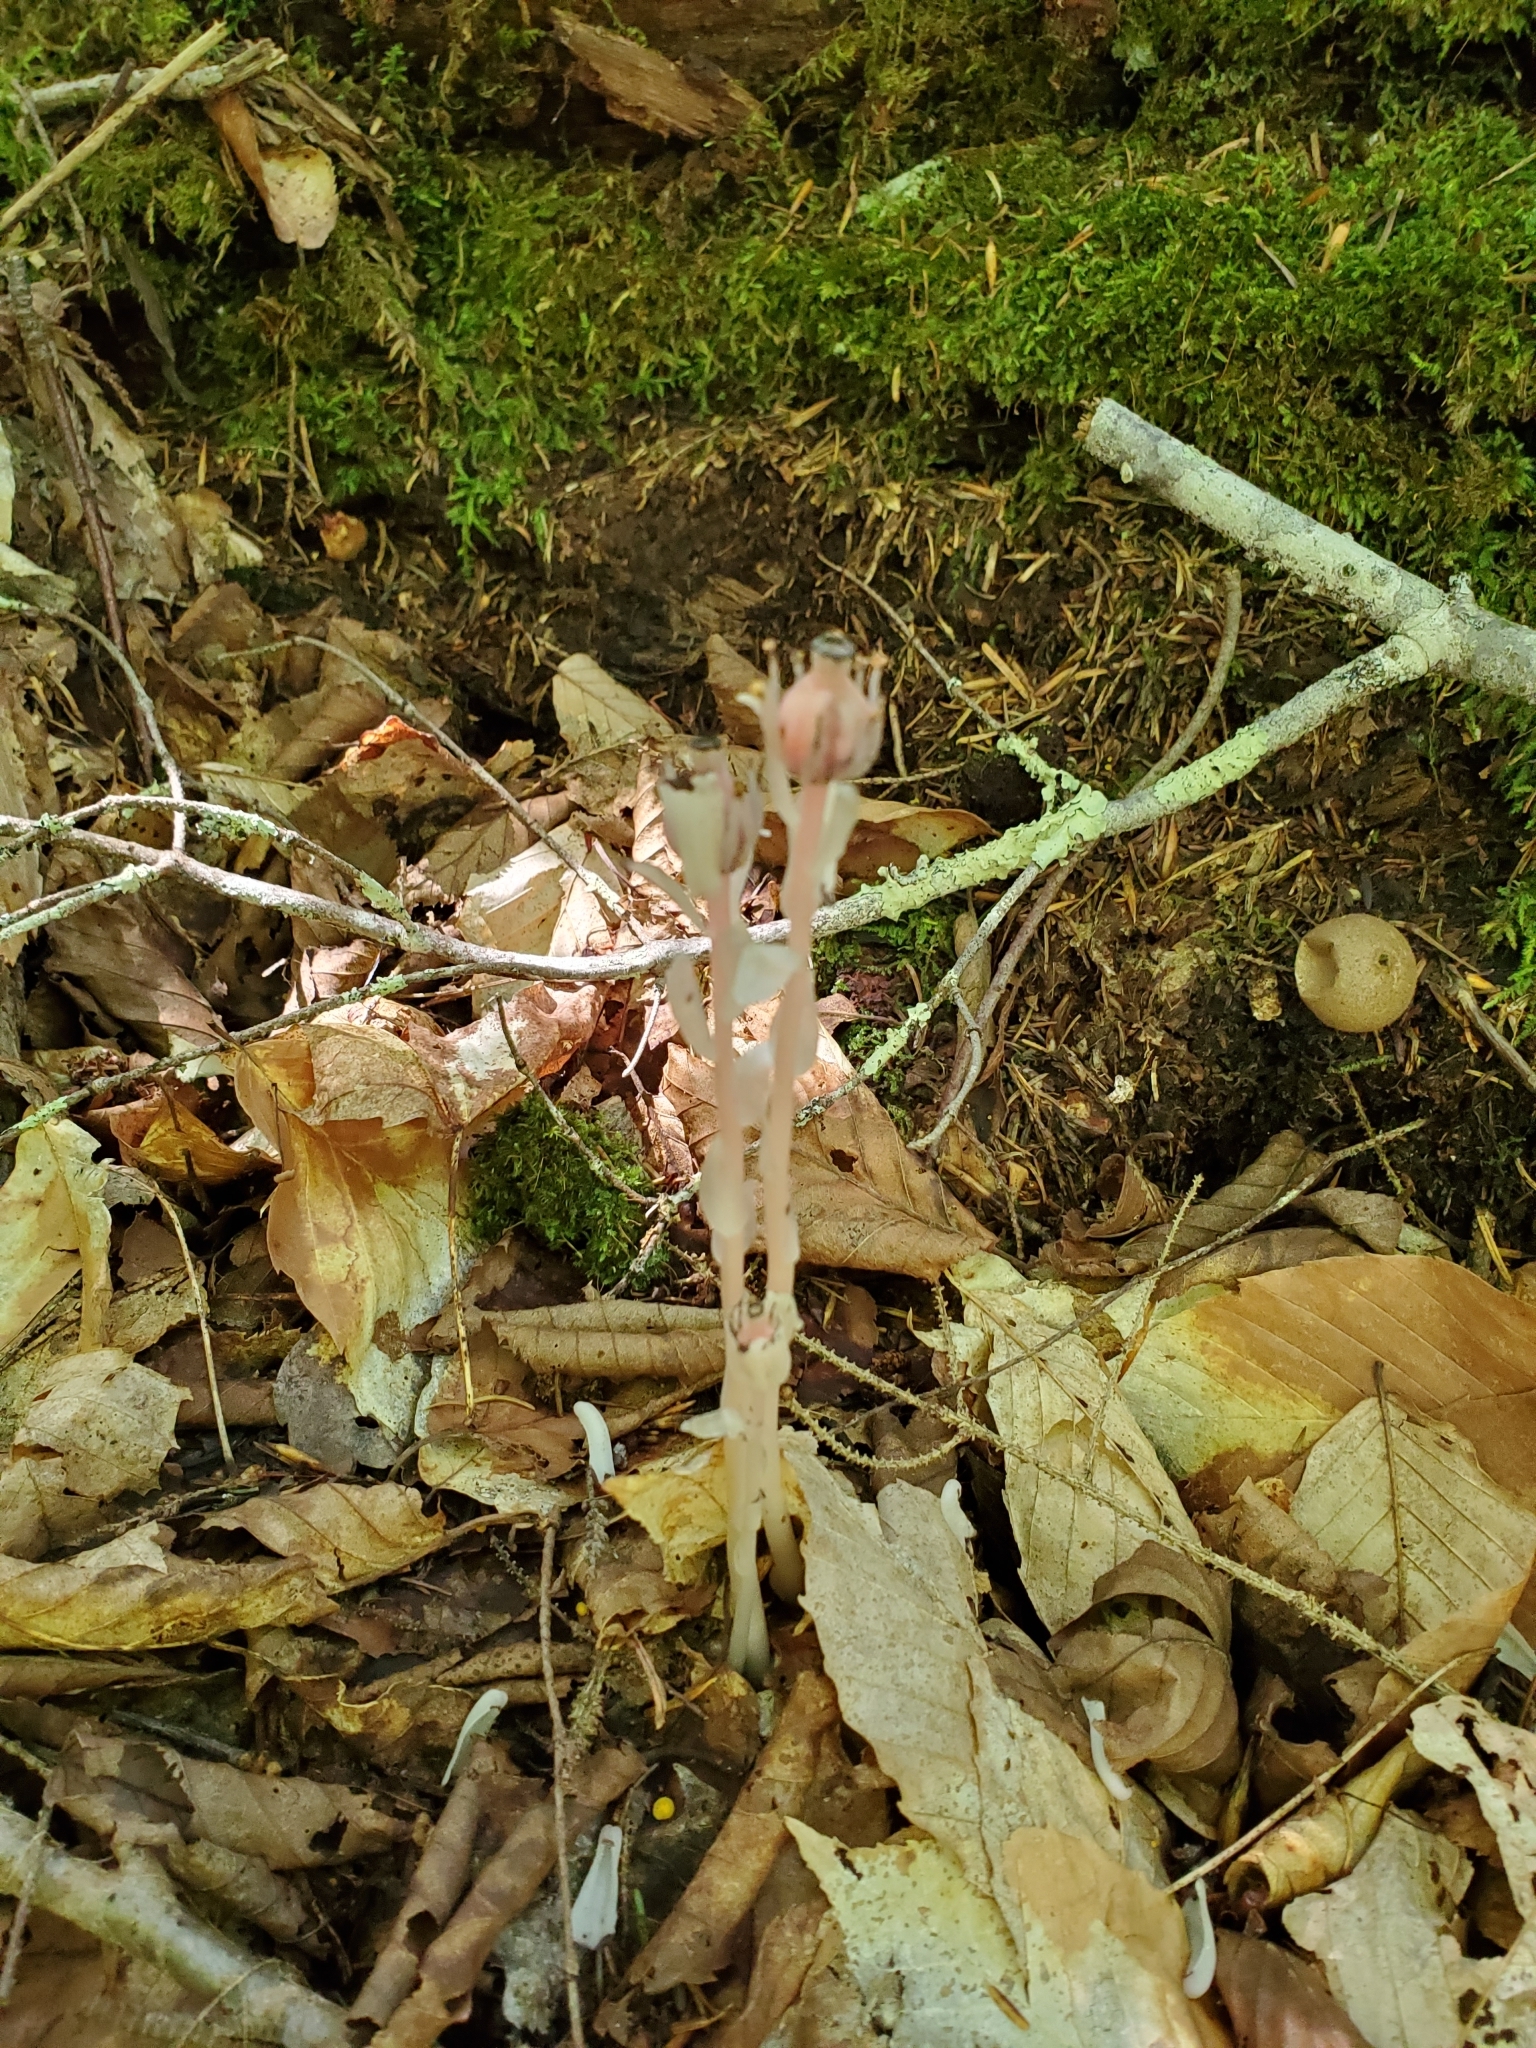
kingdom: Plantae
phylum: Tracheophyta
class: Magnoliopsida
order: Ericales
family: Ericaceae
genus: Monotropa
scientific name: Monotropa uniflora
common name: Convulsion root
